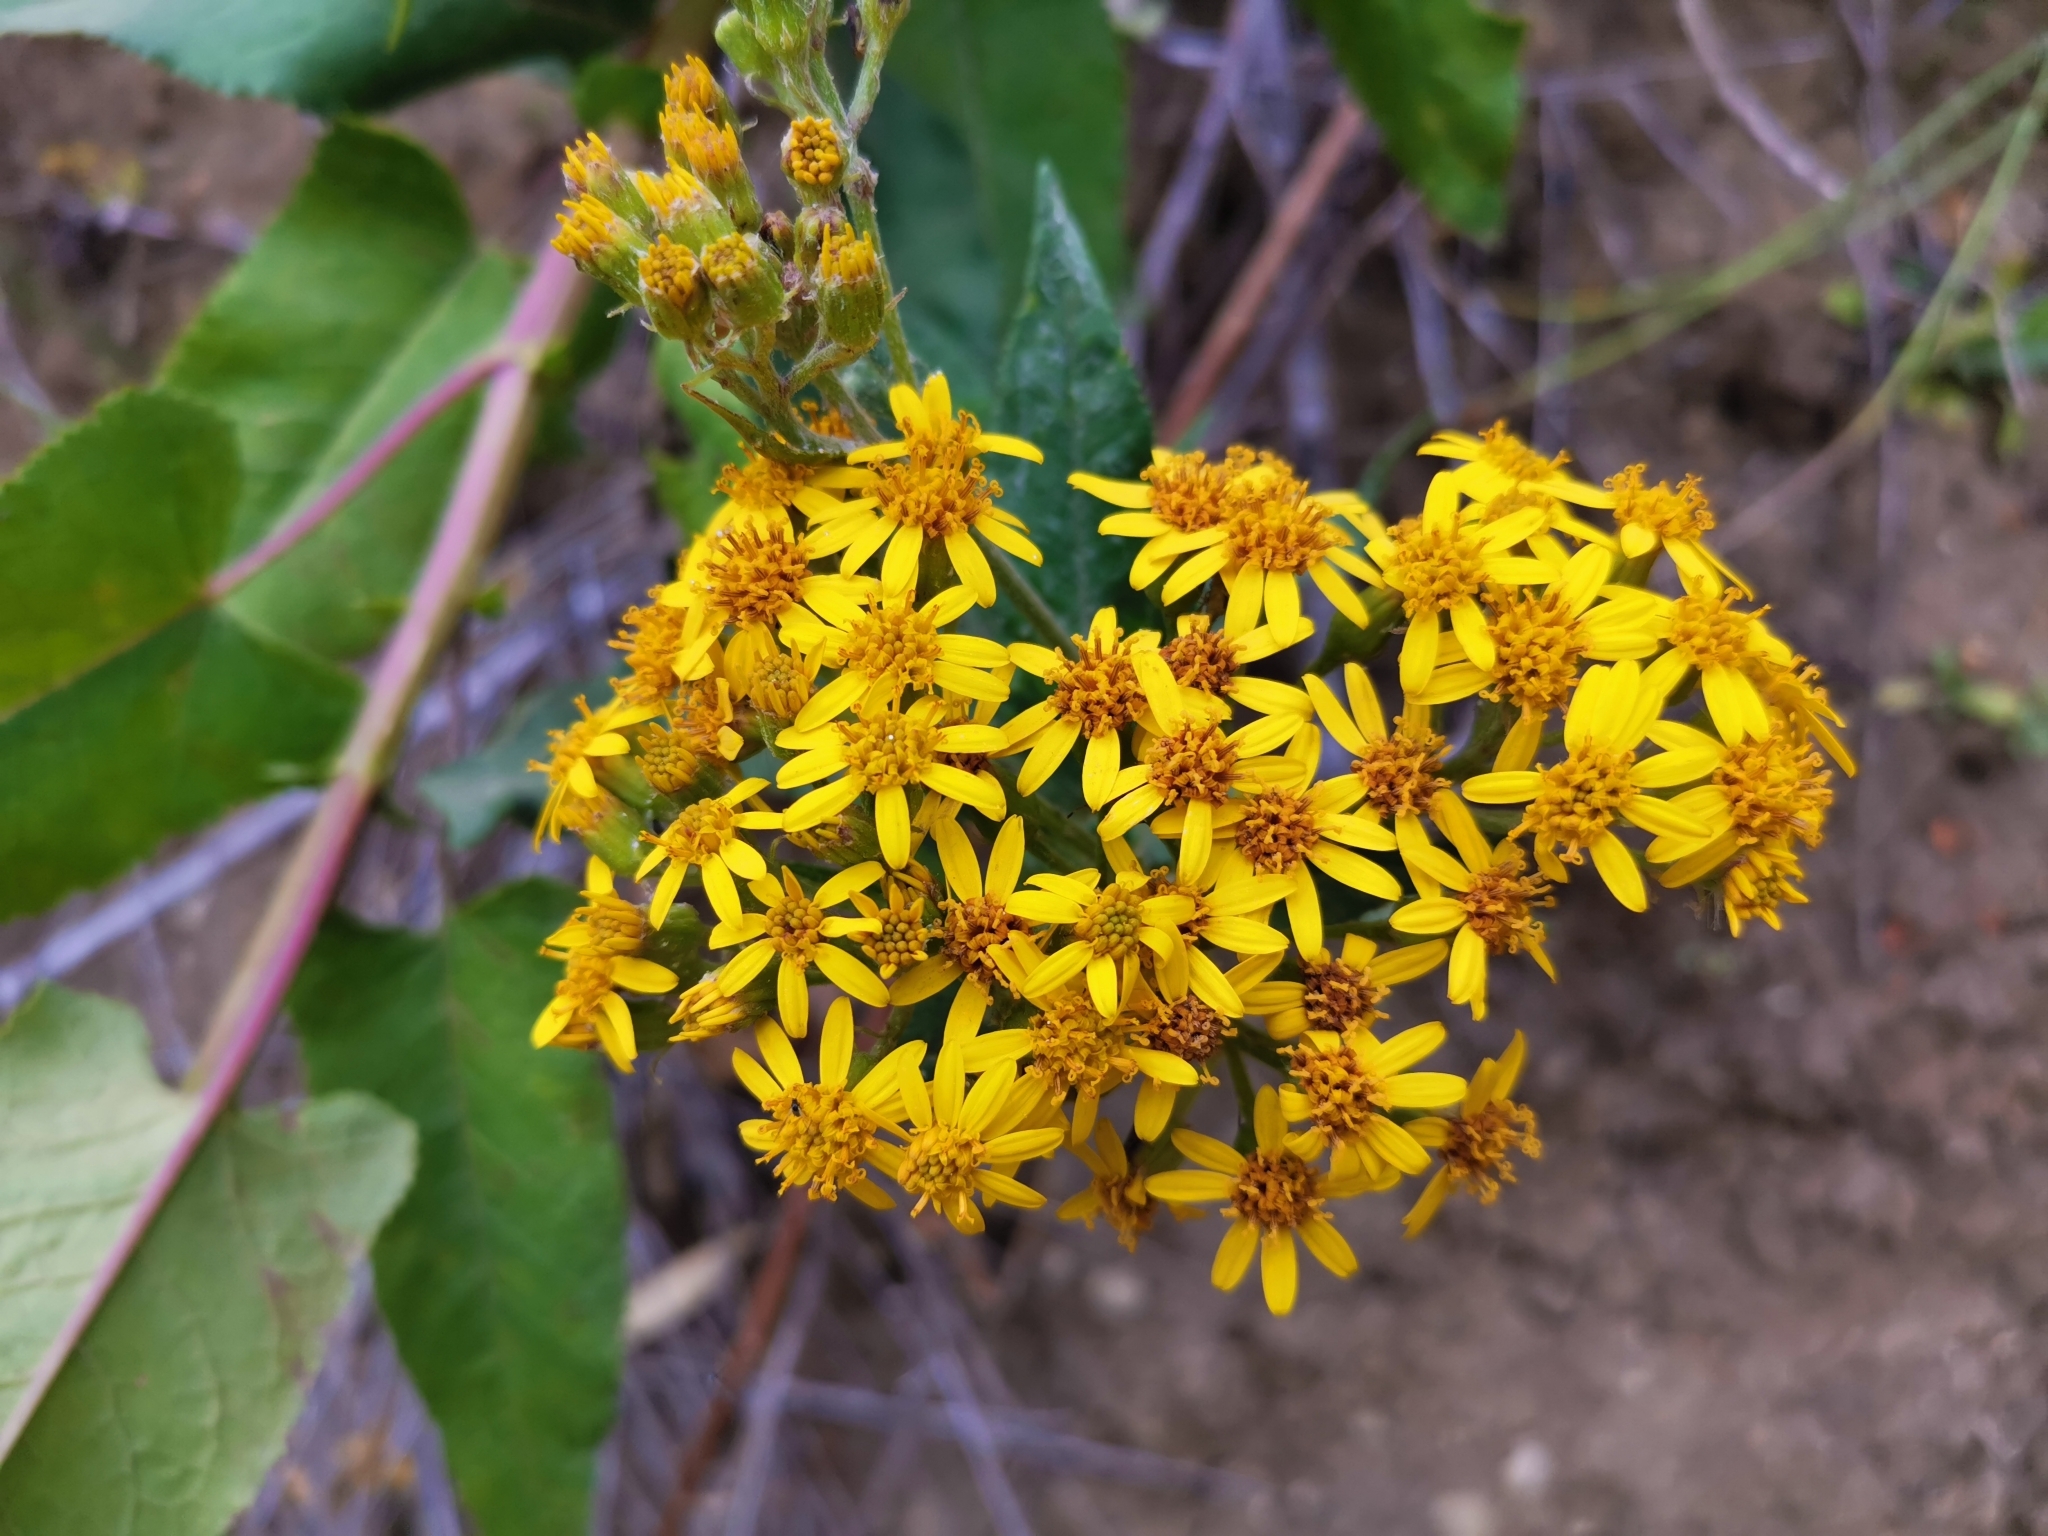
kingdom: Plantae
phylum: Tracheophyta
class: Magnoliopsida
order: Asterales
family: Asteraceae
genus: Senecio
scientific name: Senecio otites
